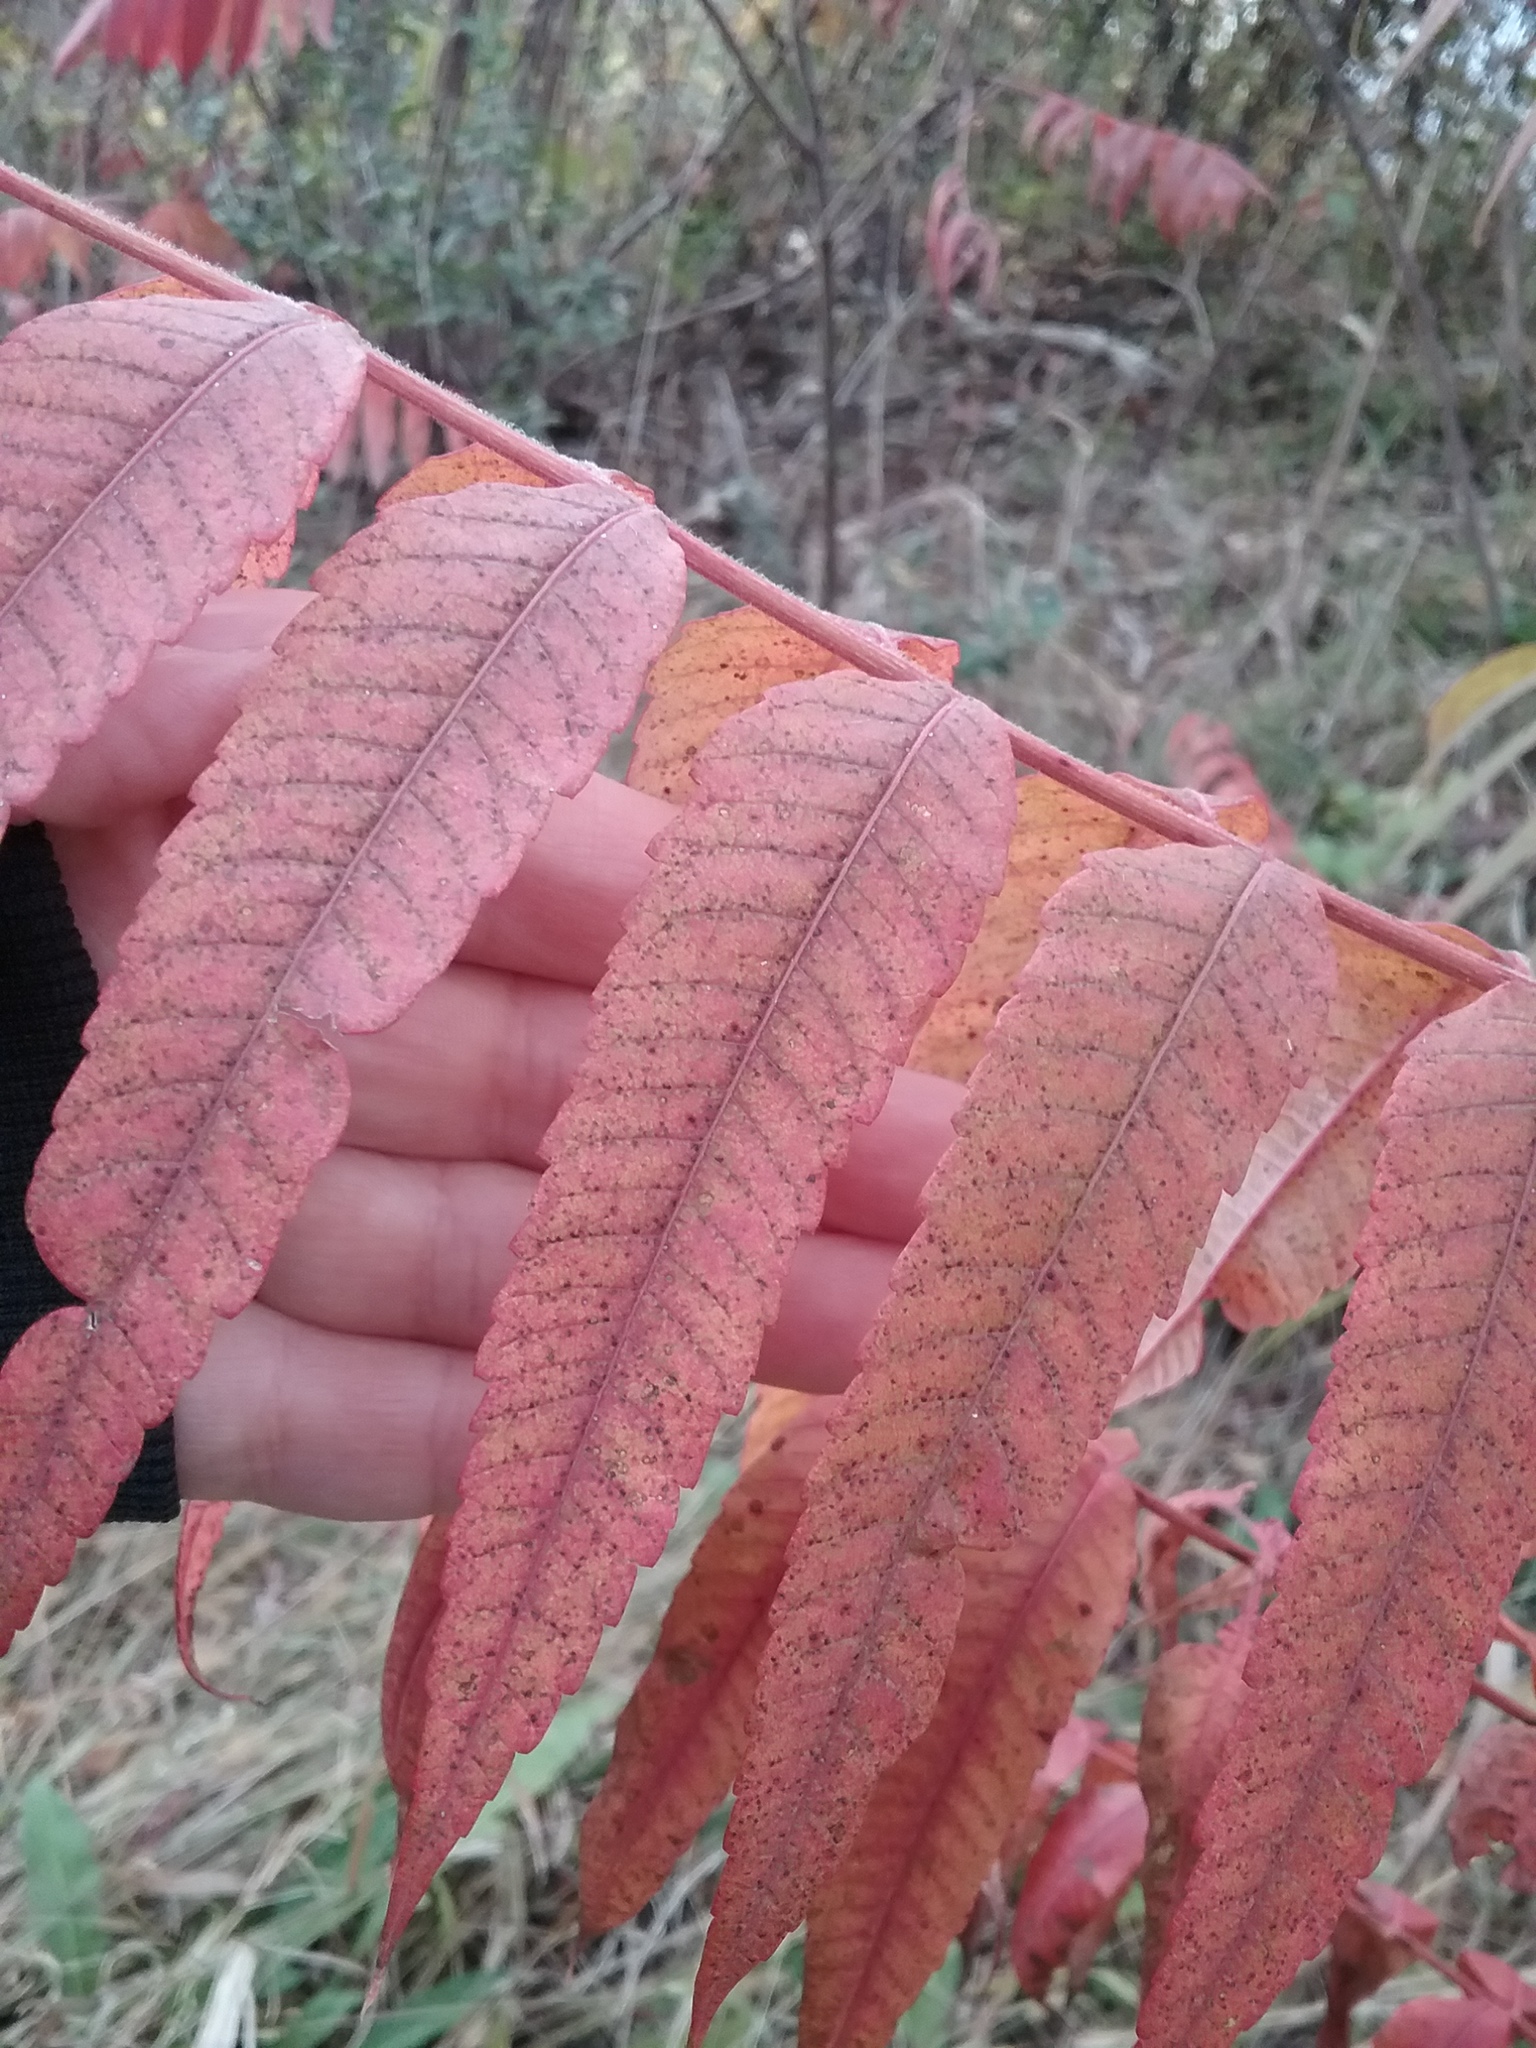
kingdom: Plantae
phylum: Tracheophyta
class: Magnoliopsida
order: Sapindales
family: Anacardiaceae
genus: Rhus
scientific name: Rhus typhina
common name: Staghorn sumac
